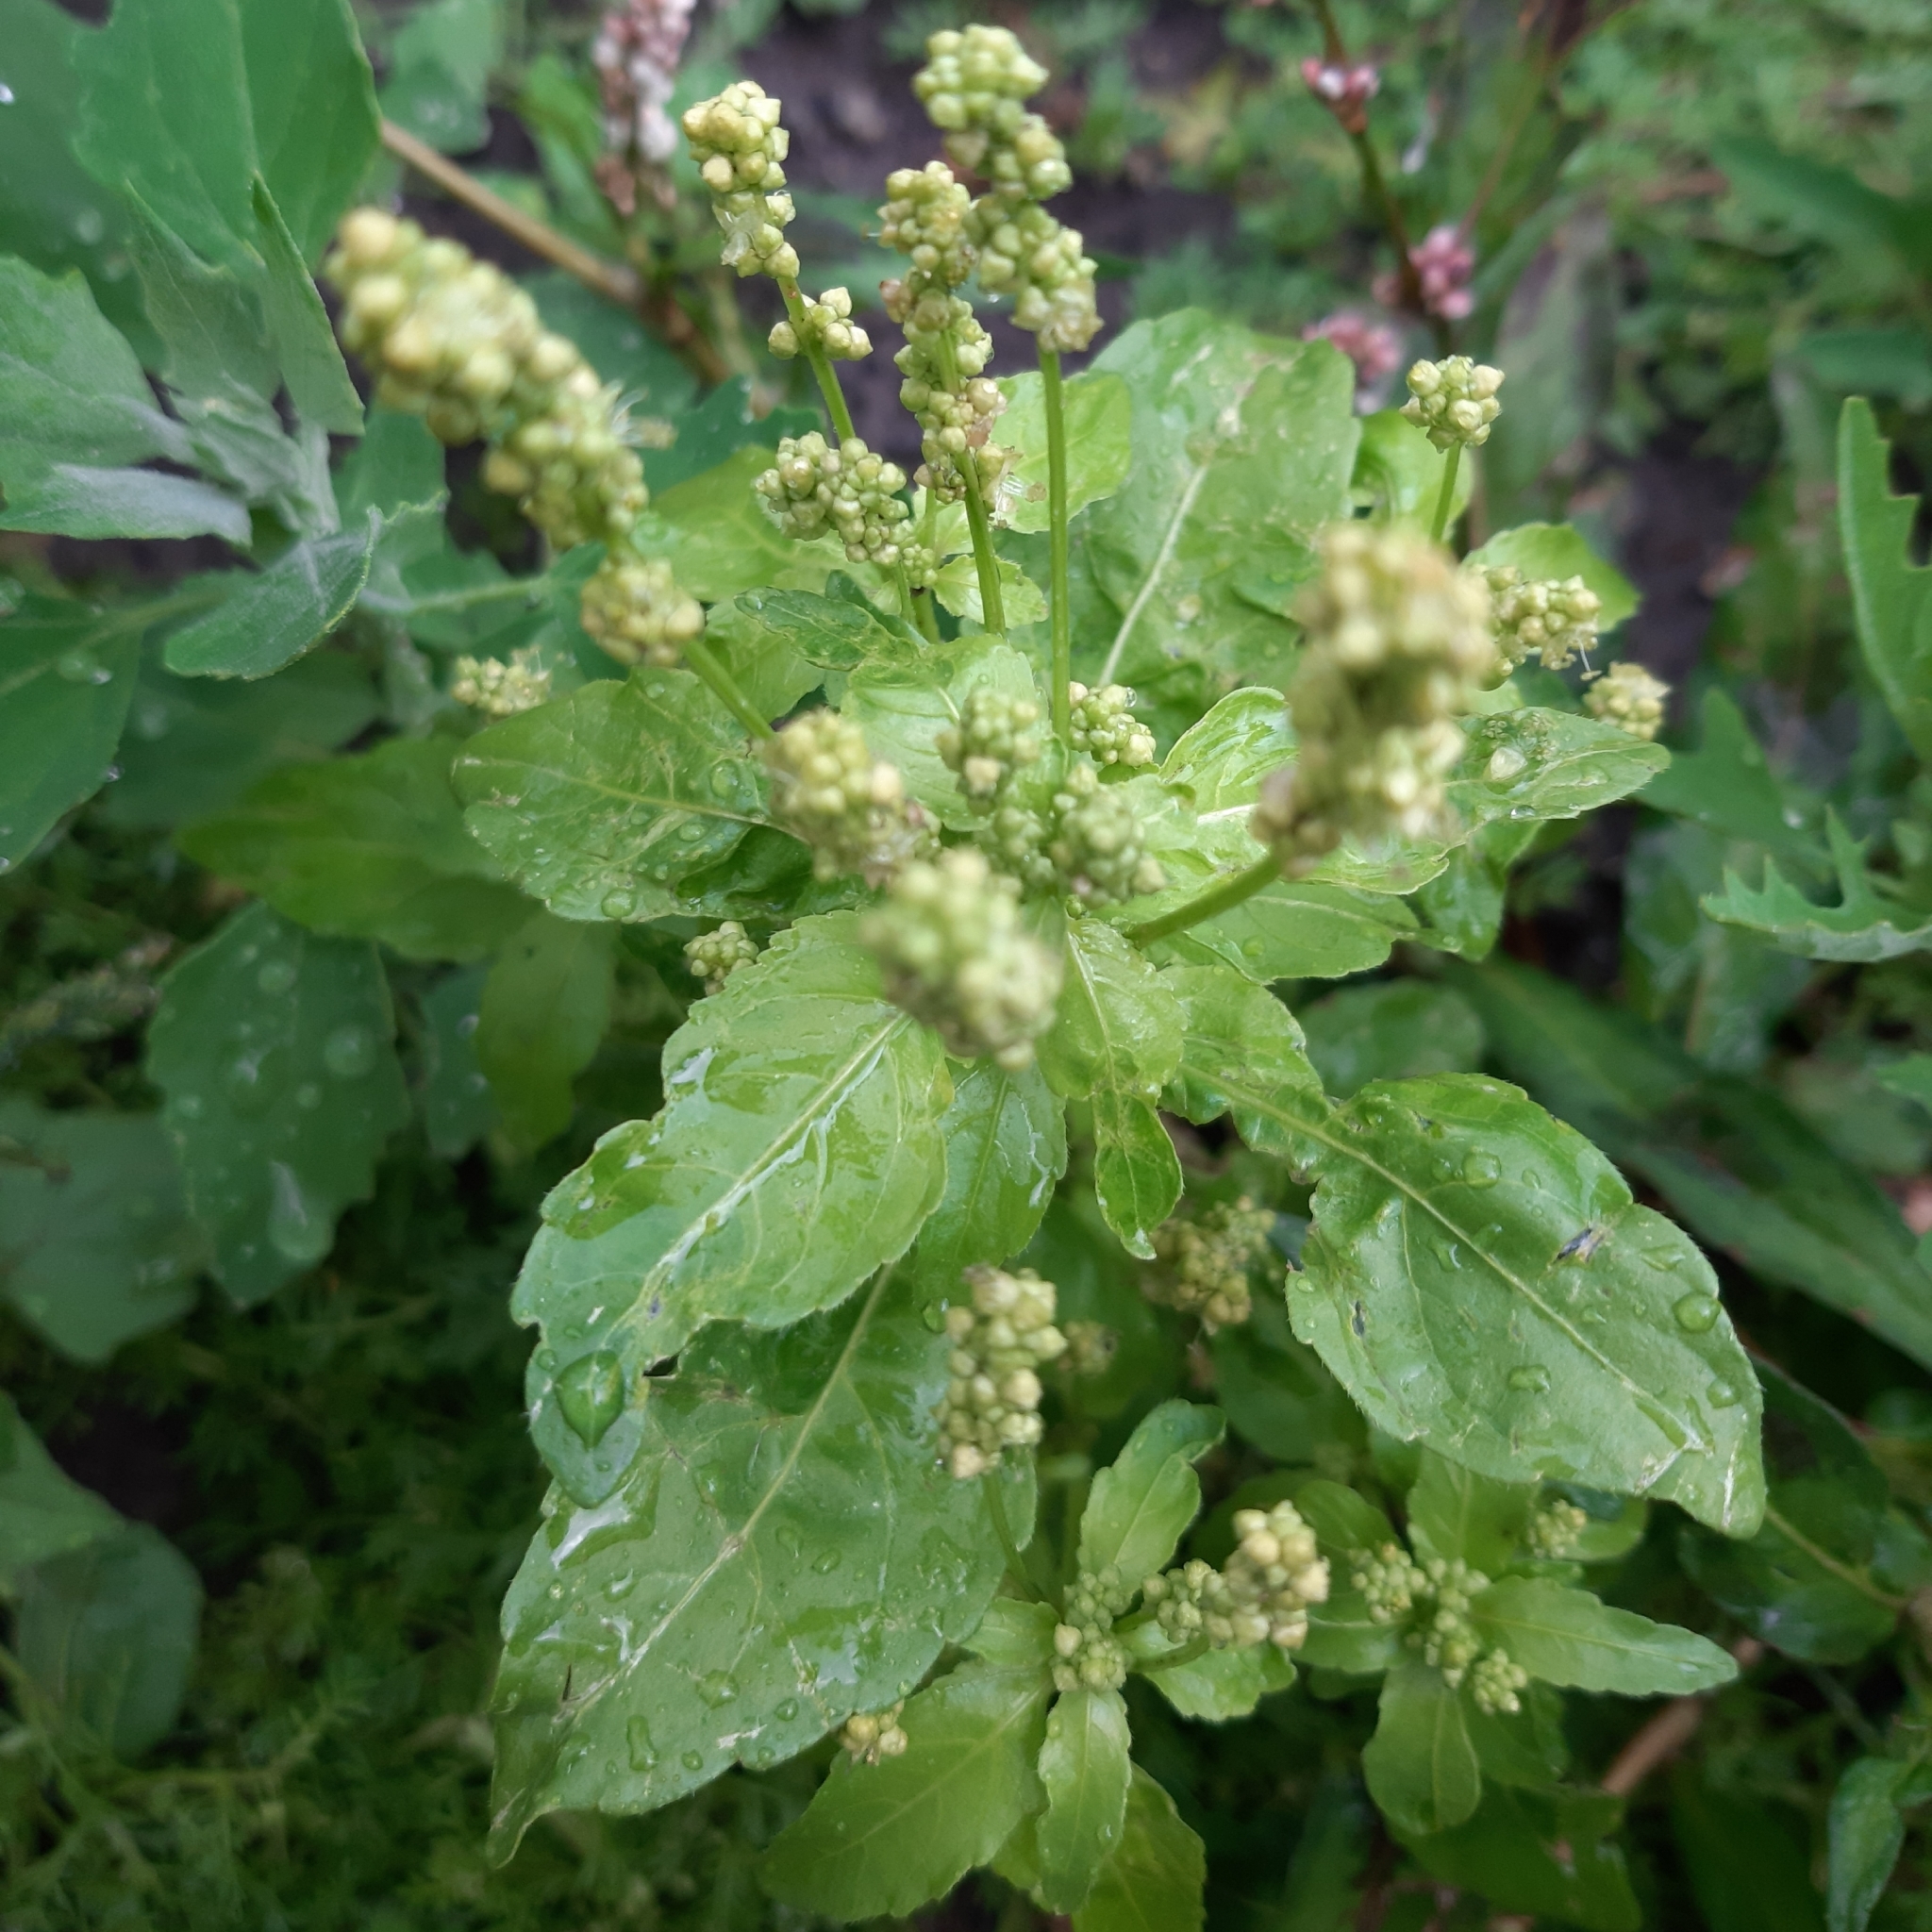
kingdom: Plantae
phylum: Tracheophyta
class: Magnoliopsida
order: Malpighiales
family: Euphorbiaceae
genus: Mercurialis
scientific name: Mercurialis annua
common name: Annual mercury
